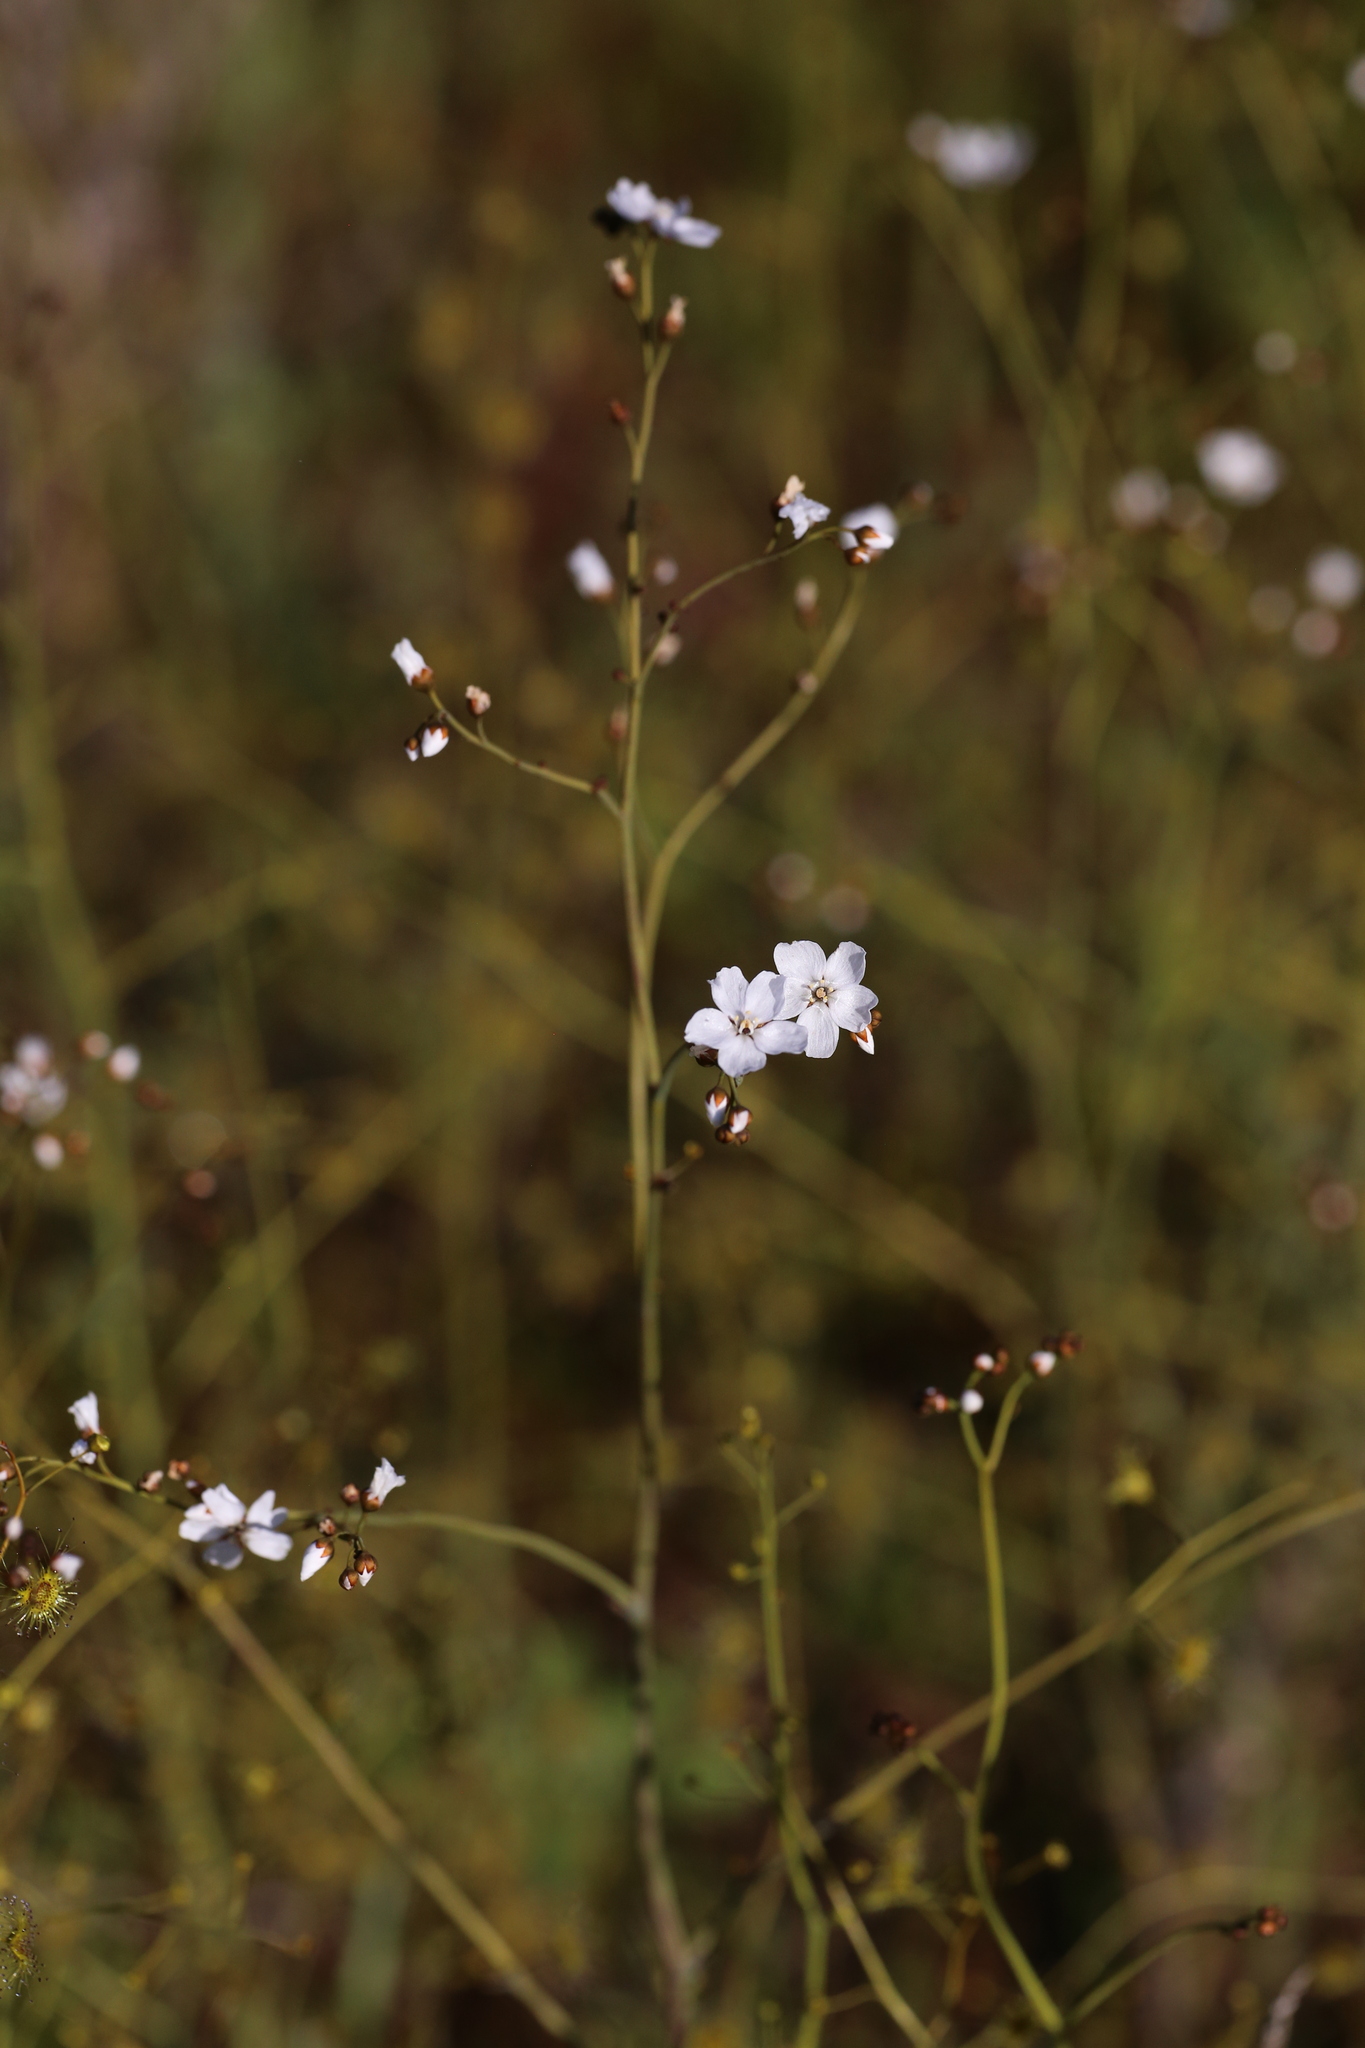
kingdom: Plantae
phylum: Tracheophyta
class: Magnoliopsida
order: Caryophyllales
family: Droseraceae
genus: Drosera
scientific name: Drosera gigantea
